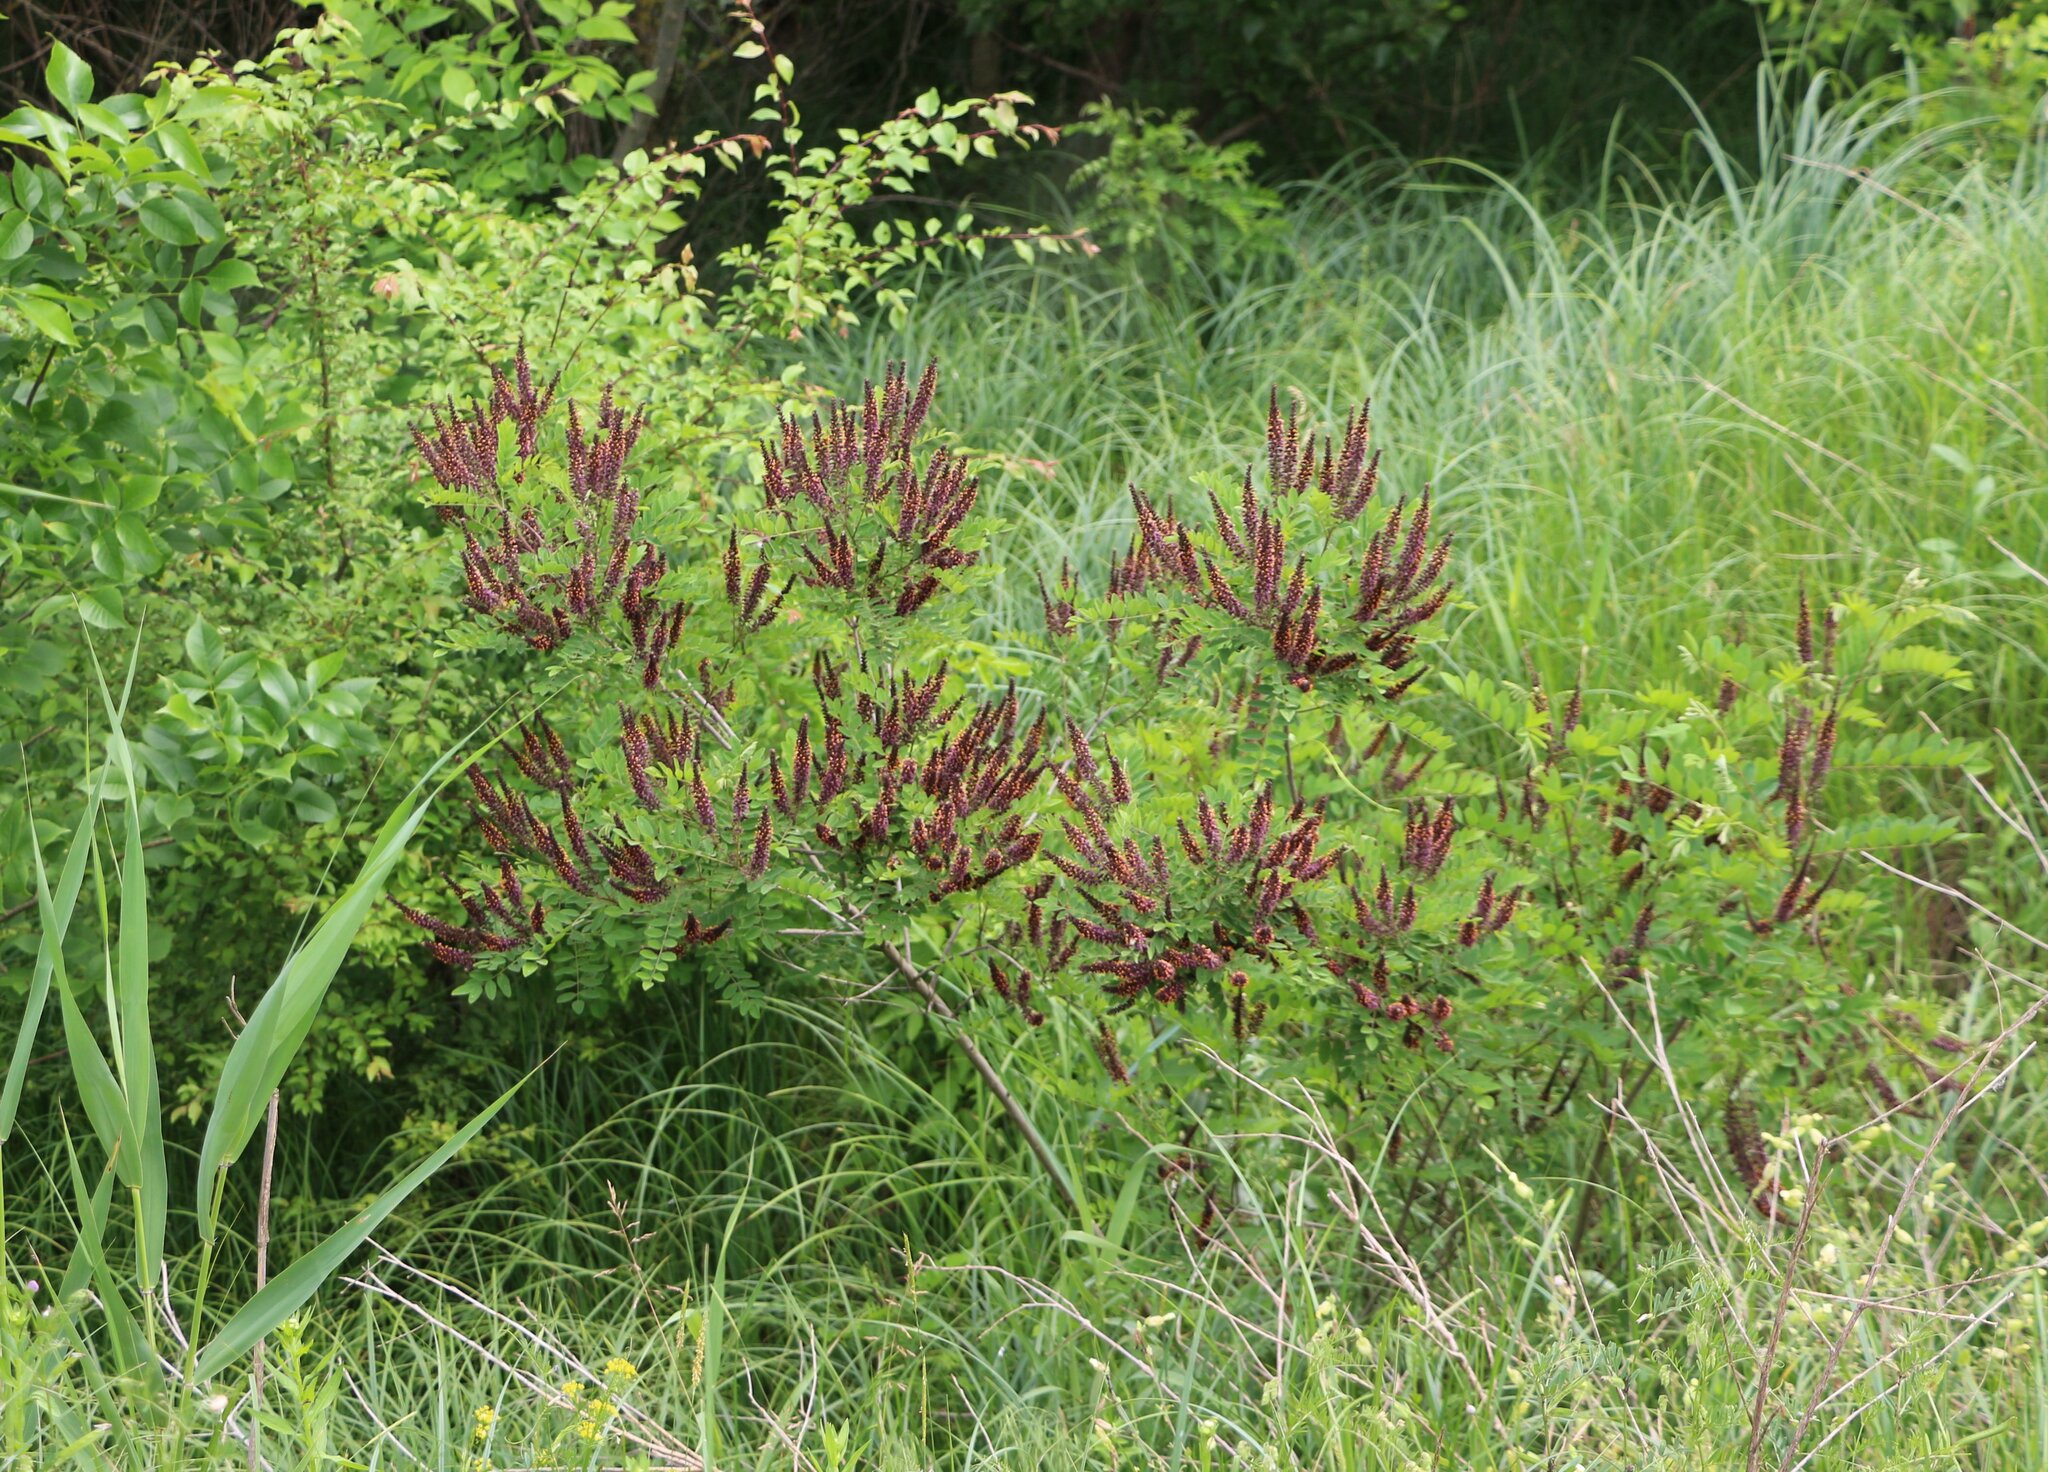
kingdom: Plantae
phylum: Tracheophyta
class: Magnoliopsida
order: Fabales
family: Fabaceae
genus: Amorpha
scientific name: Amorpha fruticosa
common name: False indigo
